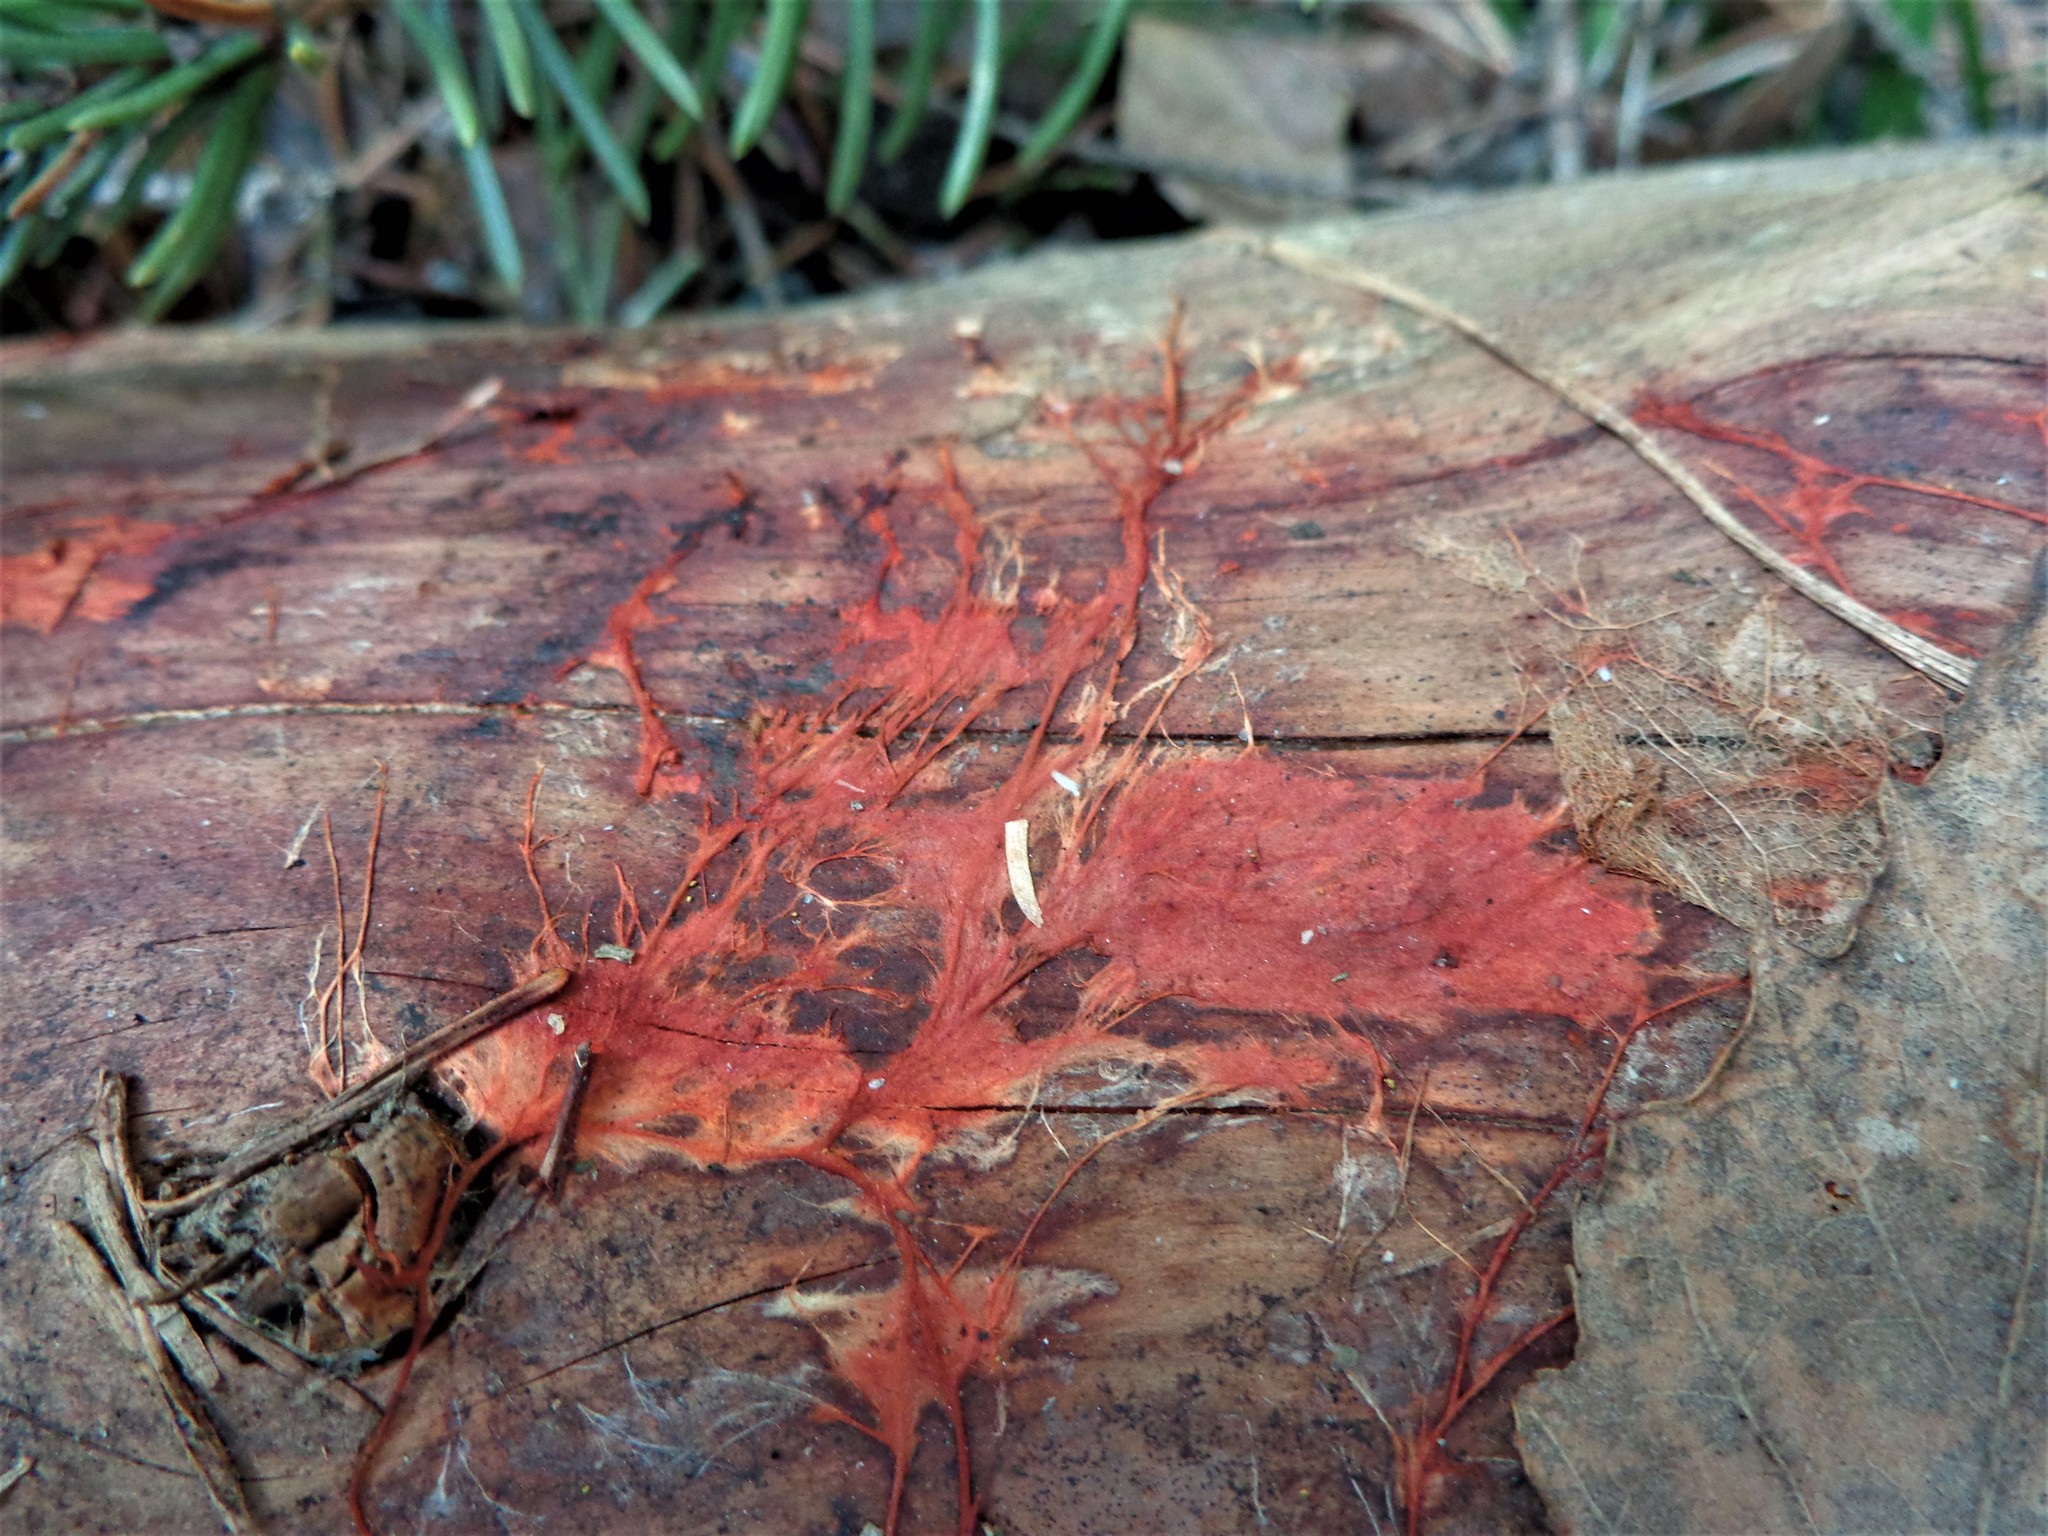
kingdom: Fungi
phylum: Basidiomycota
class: Agaricomycetes
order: Polyporales
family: Phanerochaetaceae
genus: Atheliachaete
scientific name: Atheliachaete sanguinea
